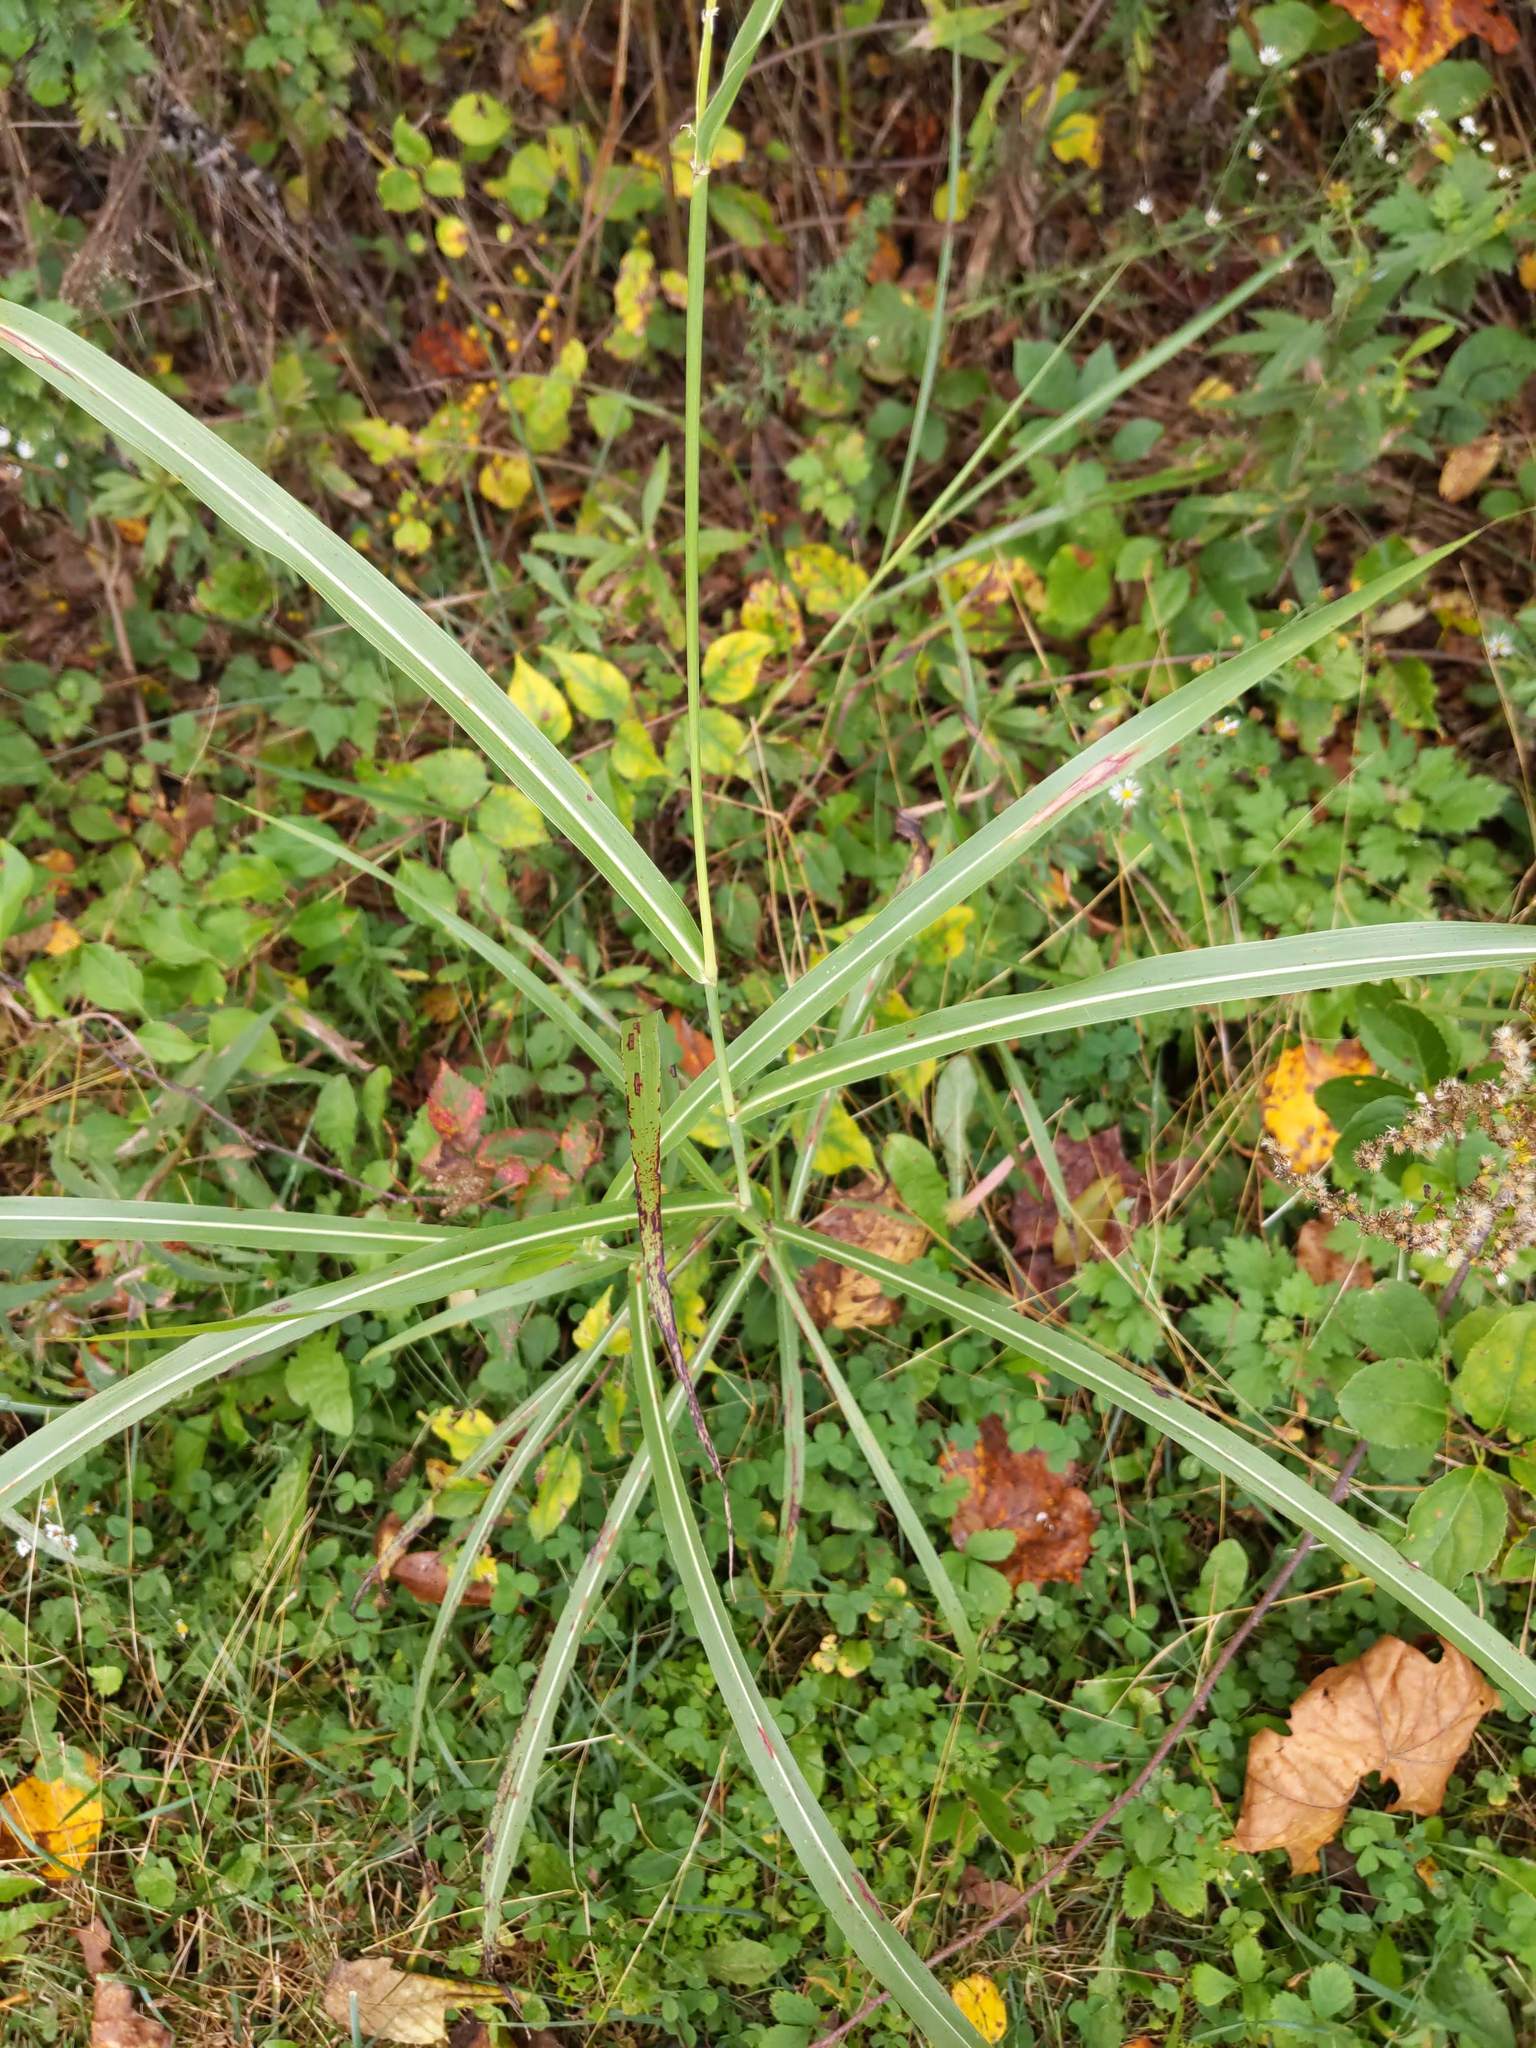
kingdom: Plantae
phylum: Tracheophyta
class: Liliopsida
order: Poales
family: Poaceae
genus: Sorghum
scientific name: Sorghum halepense
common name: Johnson-grass
